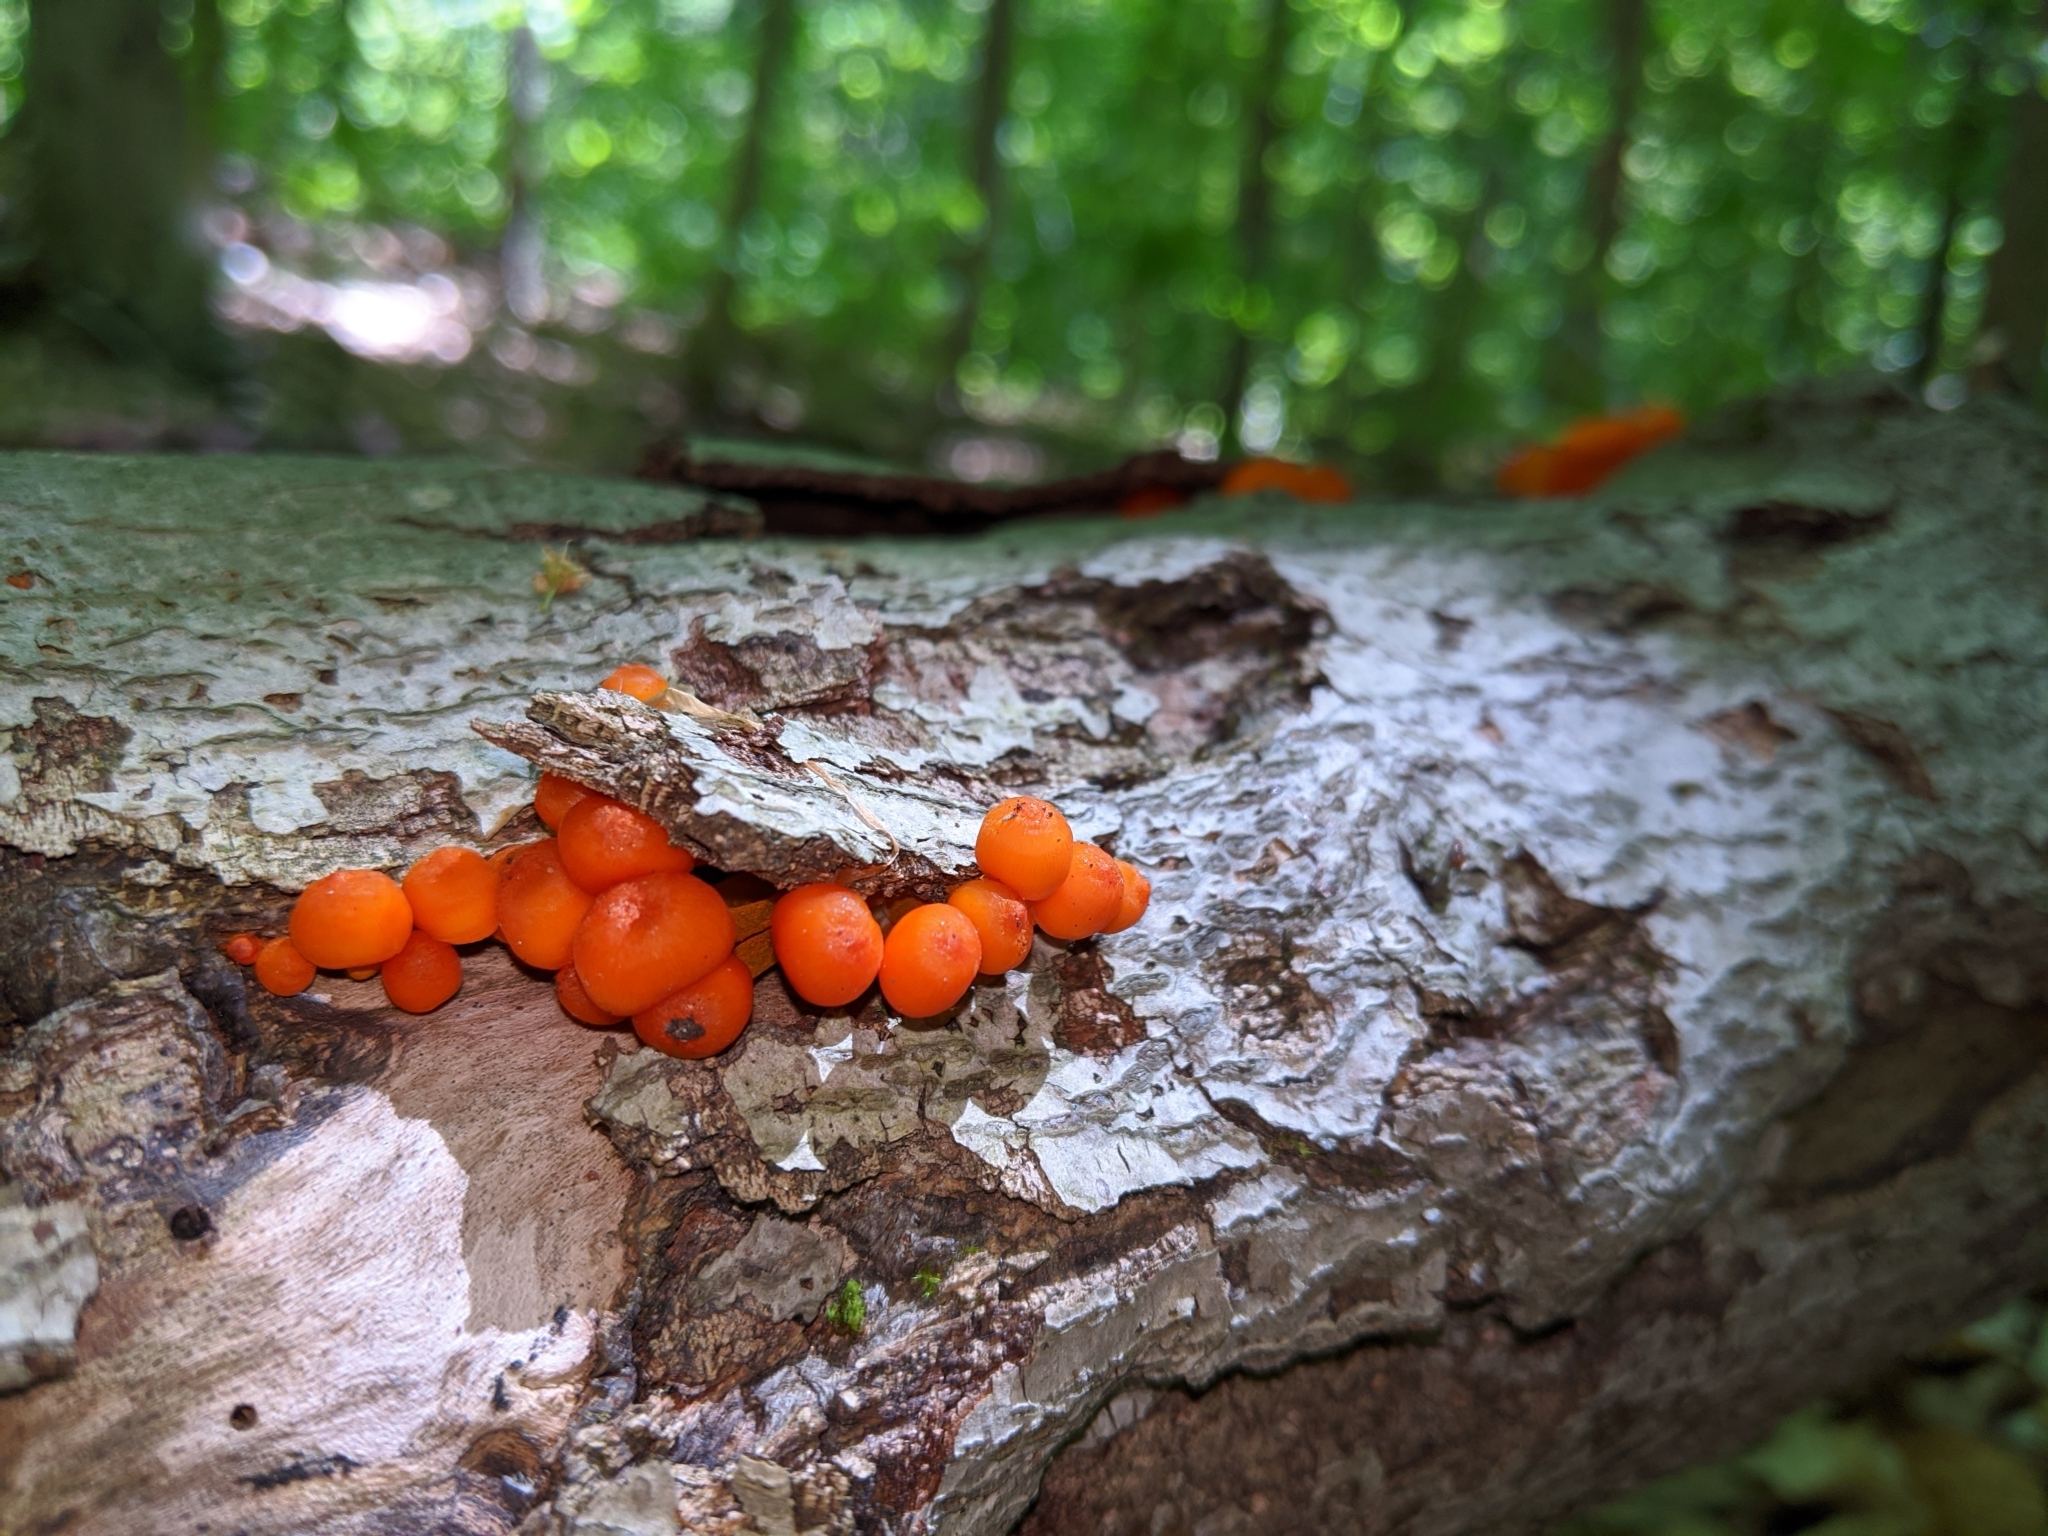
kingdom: Fungi
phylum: Basidiomycota
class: Agaricomycetes
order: Agaricales
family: Mycenaceae
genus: Mycena
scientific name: Mycena leaiana
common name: Orange mycena
